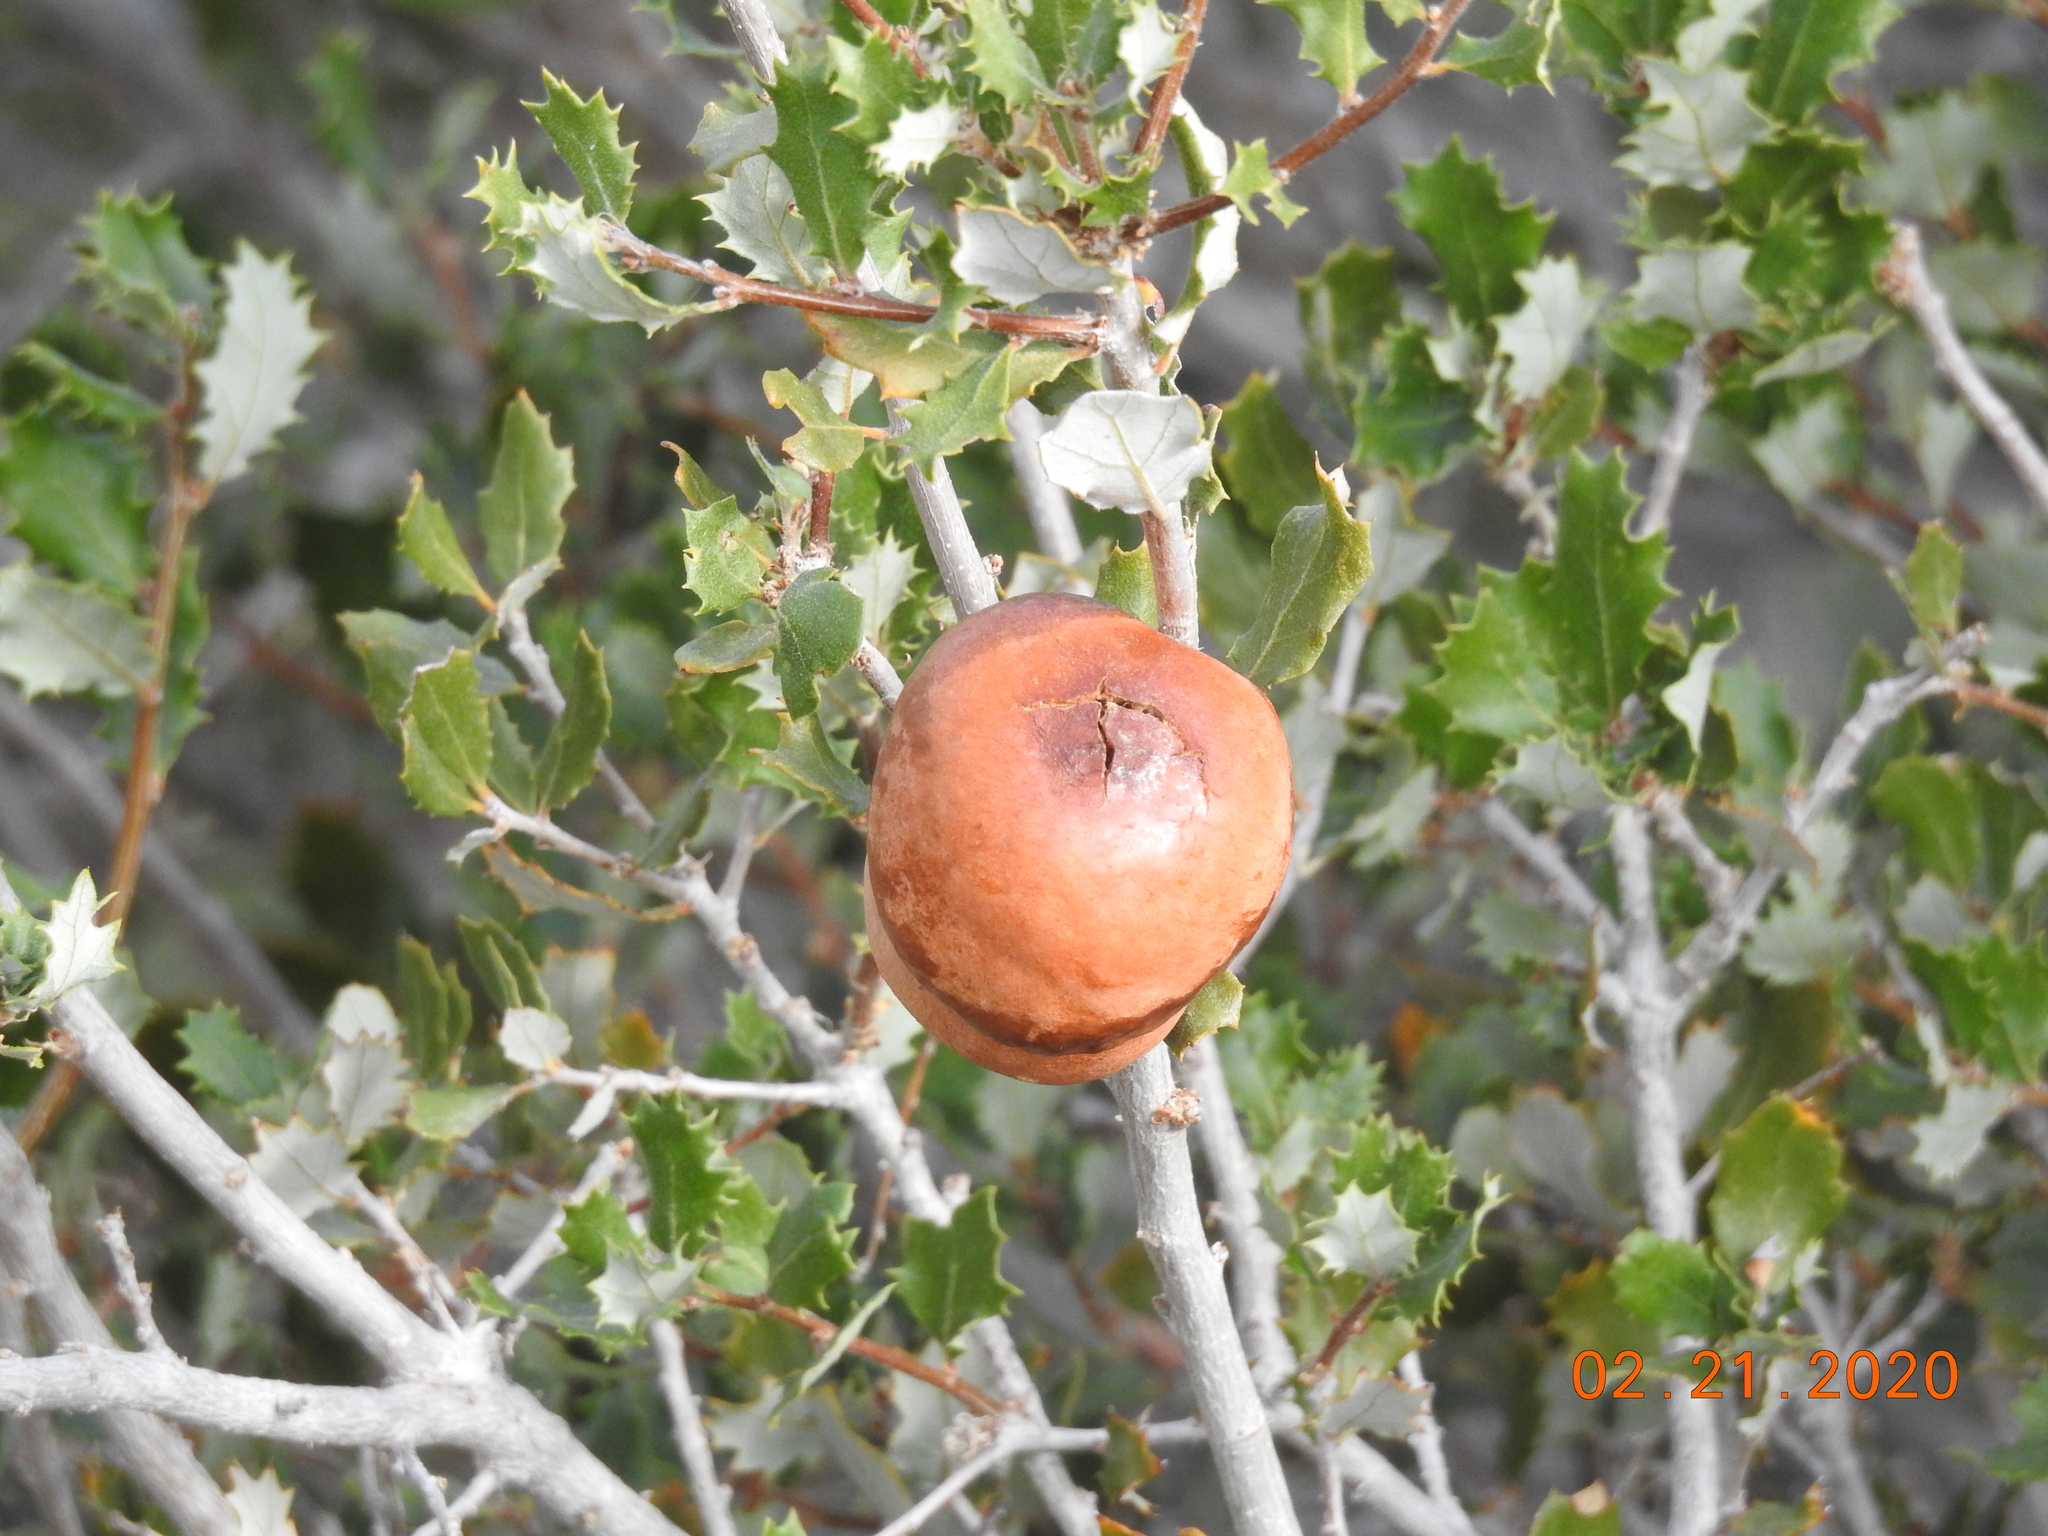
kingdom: Animalia
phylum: Arthropoda
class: Insecta
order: Hymenoptera
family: Cynipidae
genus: Andricus
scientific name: Andricus quercuscalifornicus
